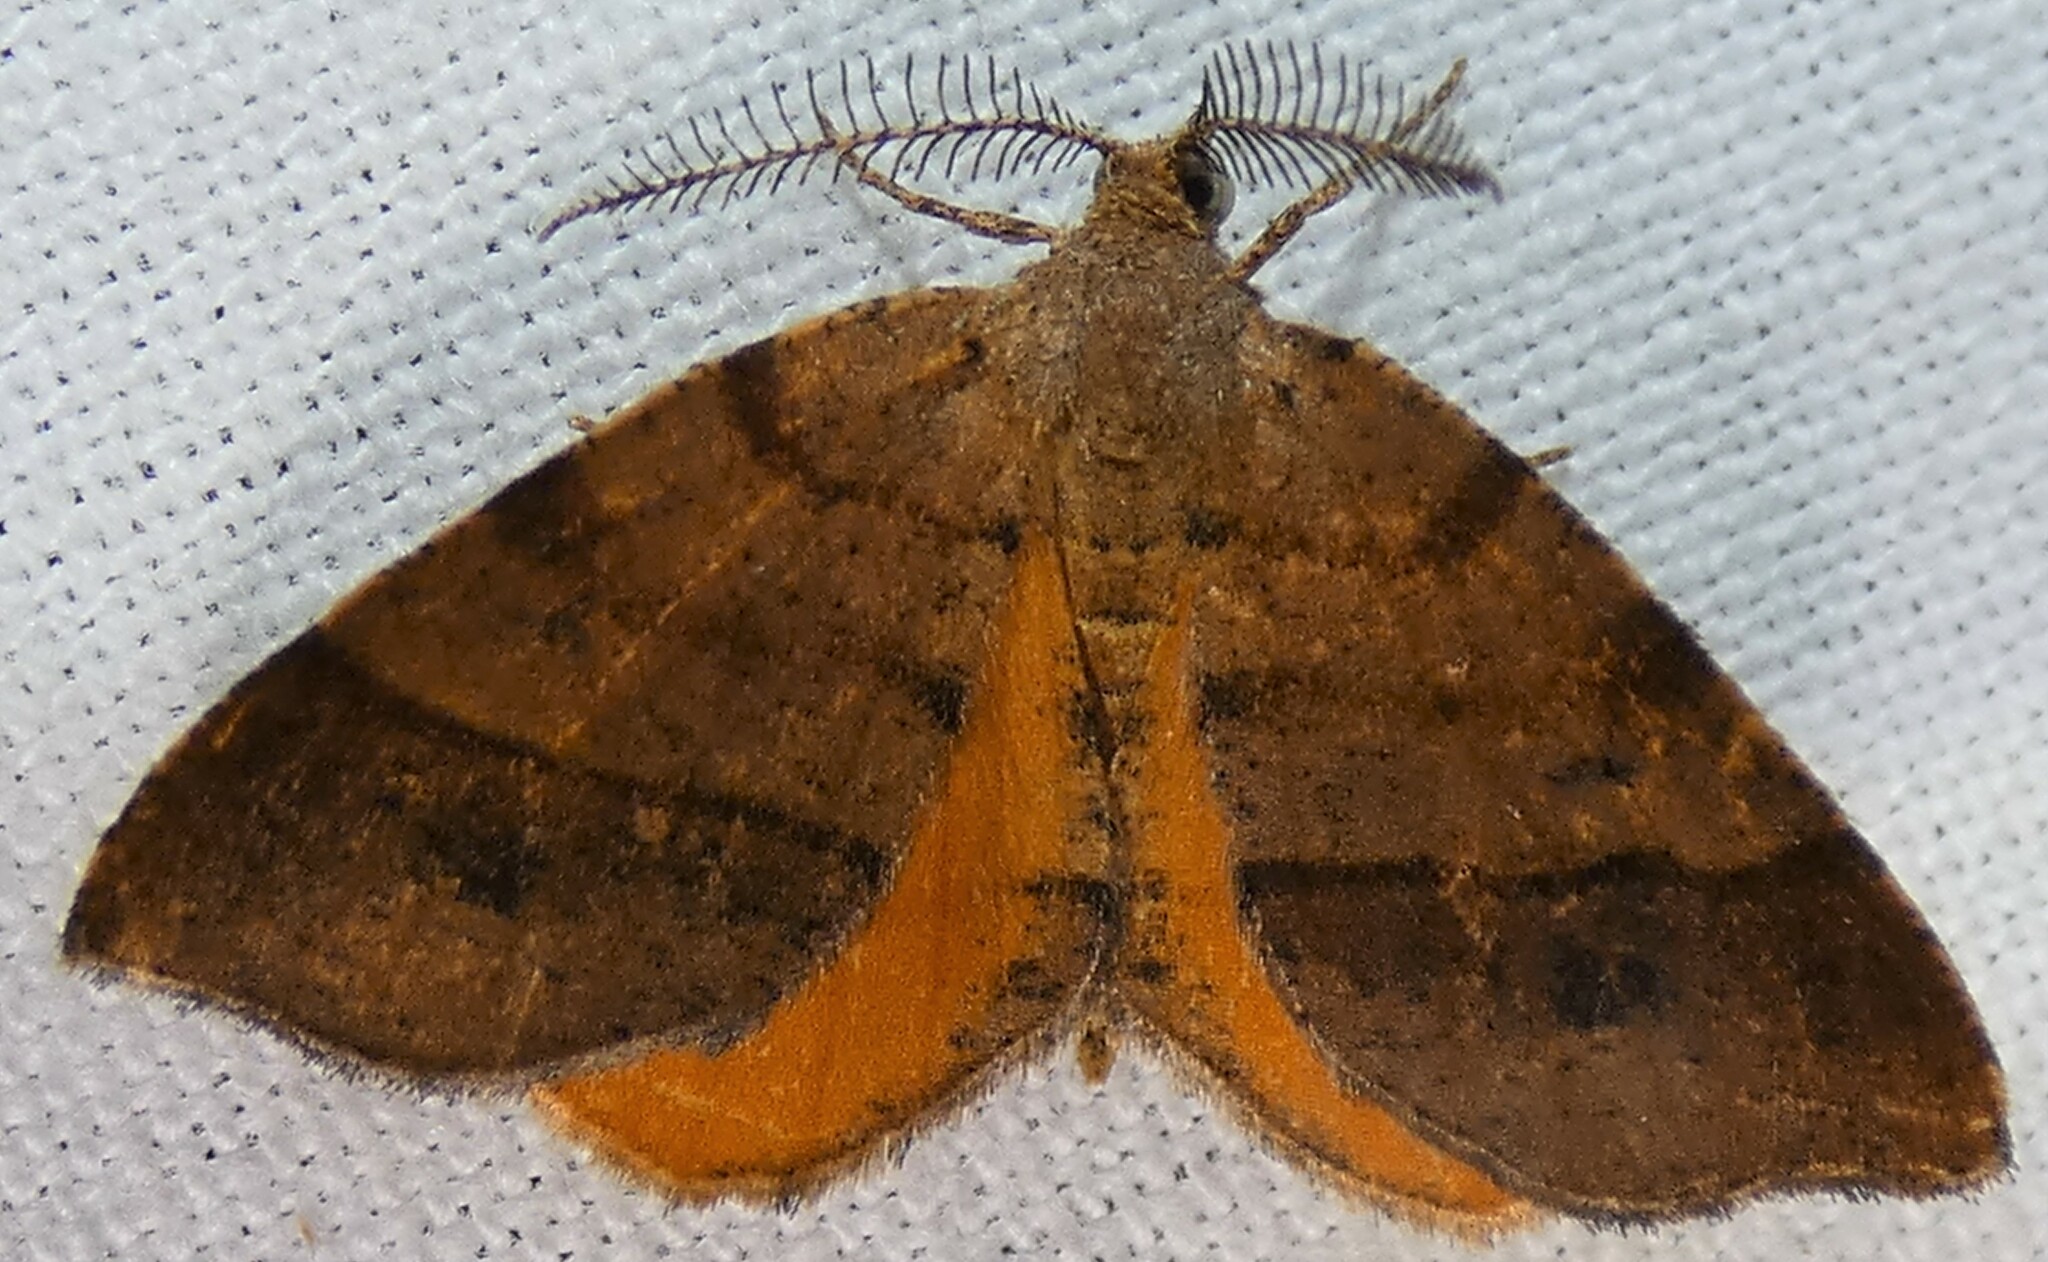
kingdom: Animalia
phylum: Arthropoda
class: Insecta
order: Lepidoptera
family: Geometridae
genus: Mellilla
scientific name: Mellilla xanthometata
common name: Orange wing moth
